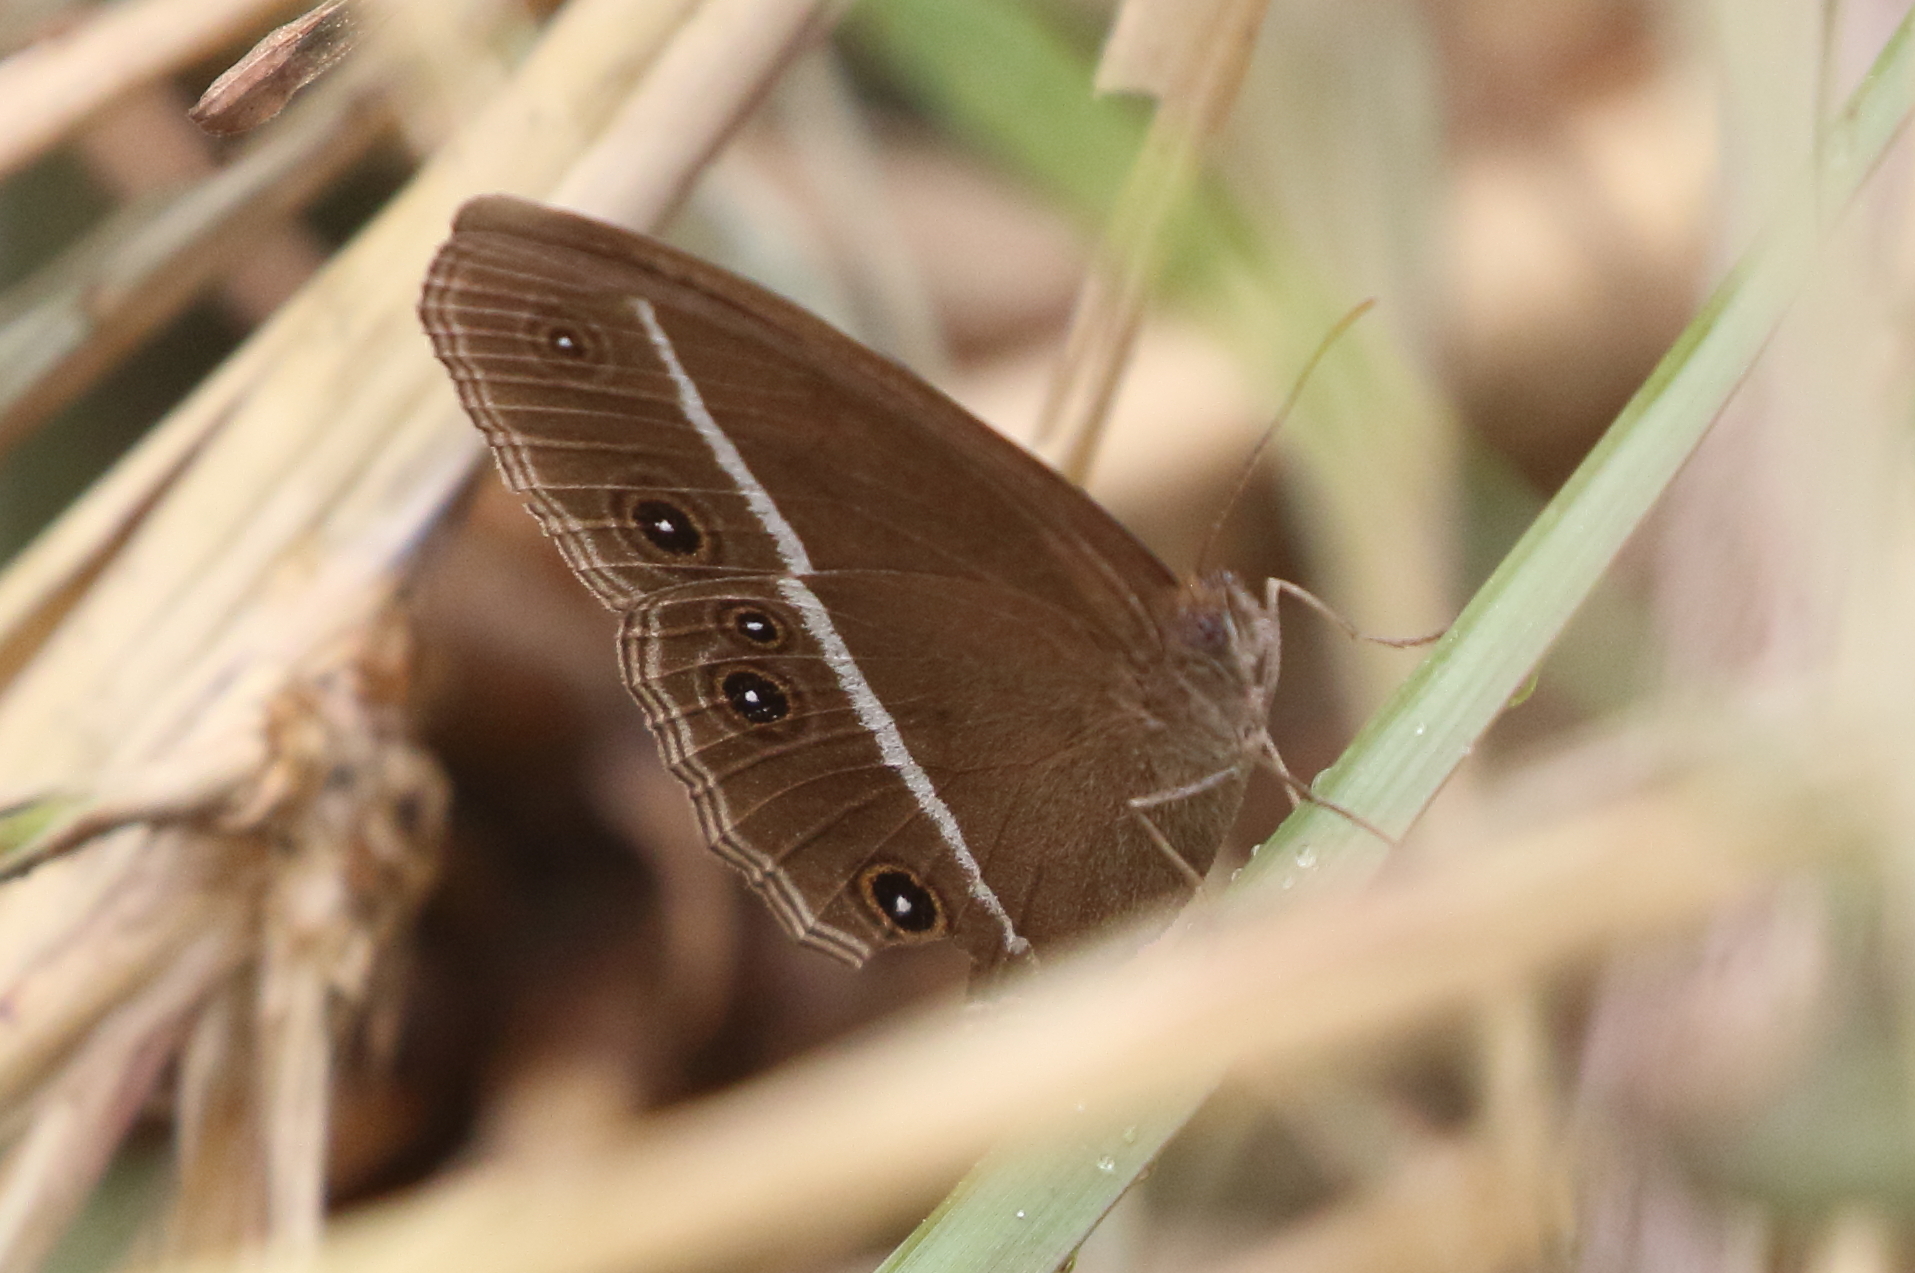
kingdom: Animalia
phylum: Arthropoda
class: Insecta
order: Lepidoptera
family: Nymphalidae
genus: Orsotriaena
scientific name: Orsotriaena medus
